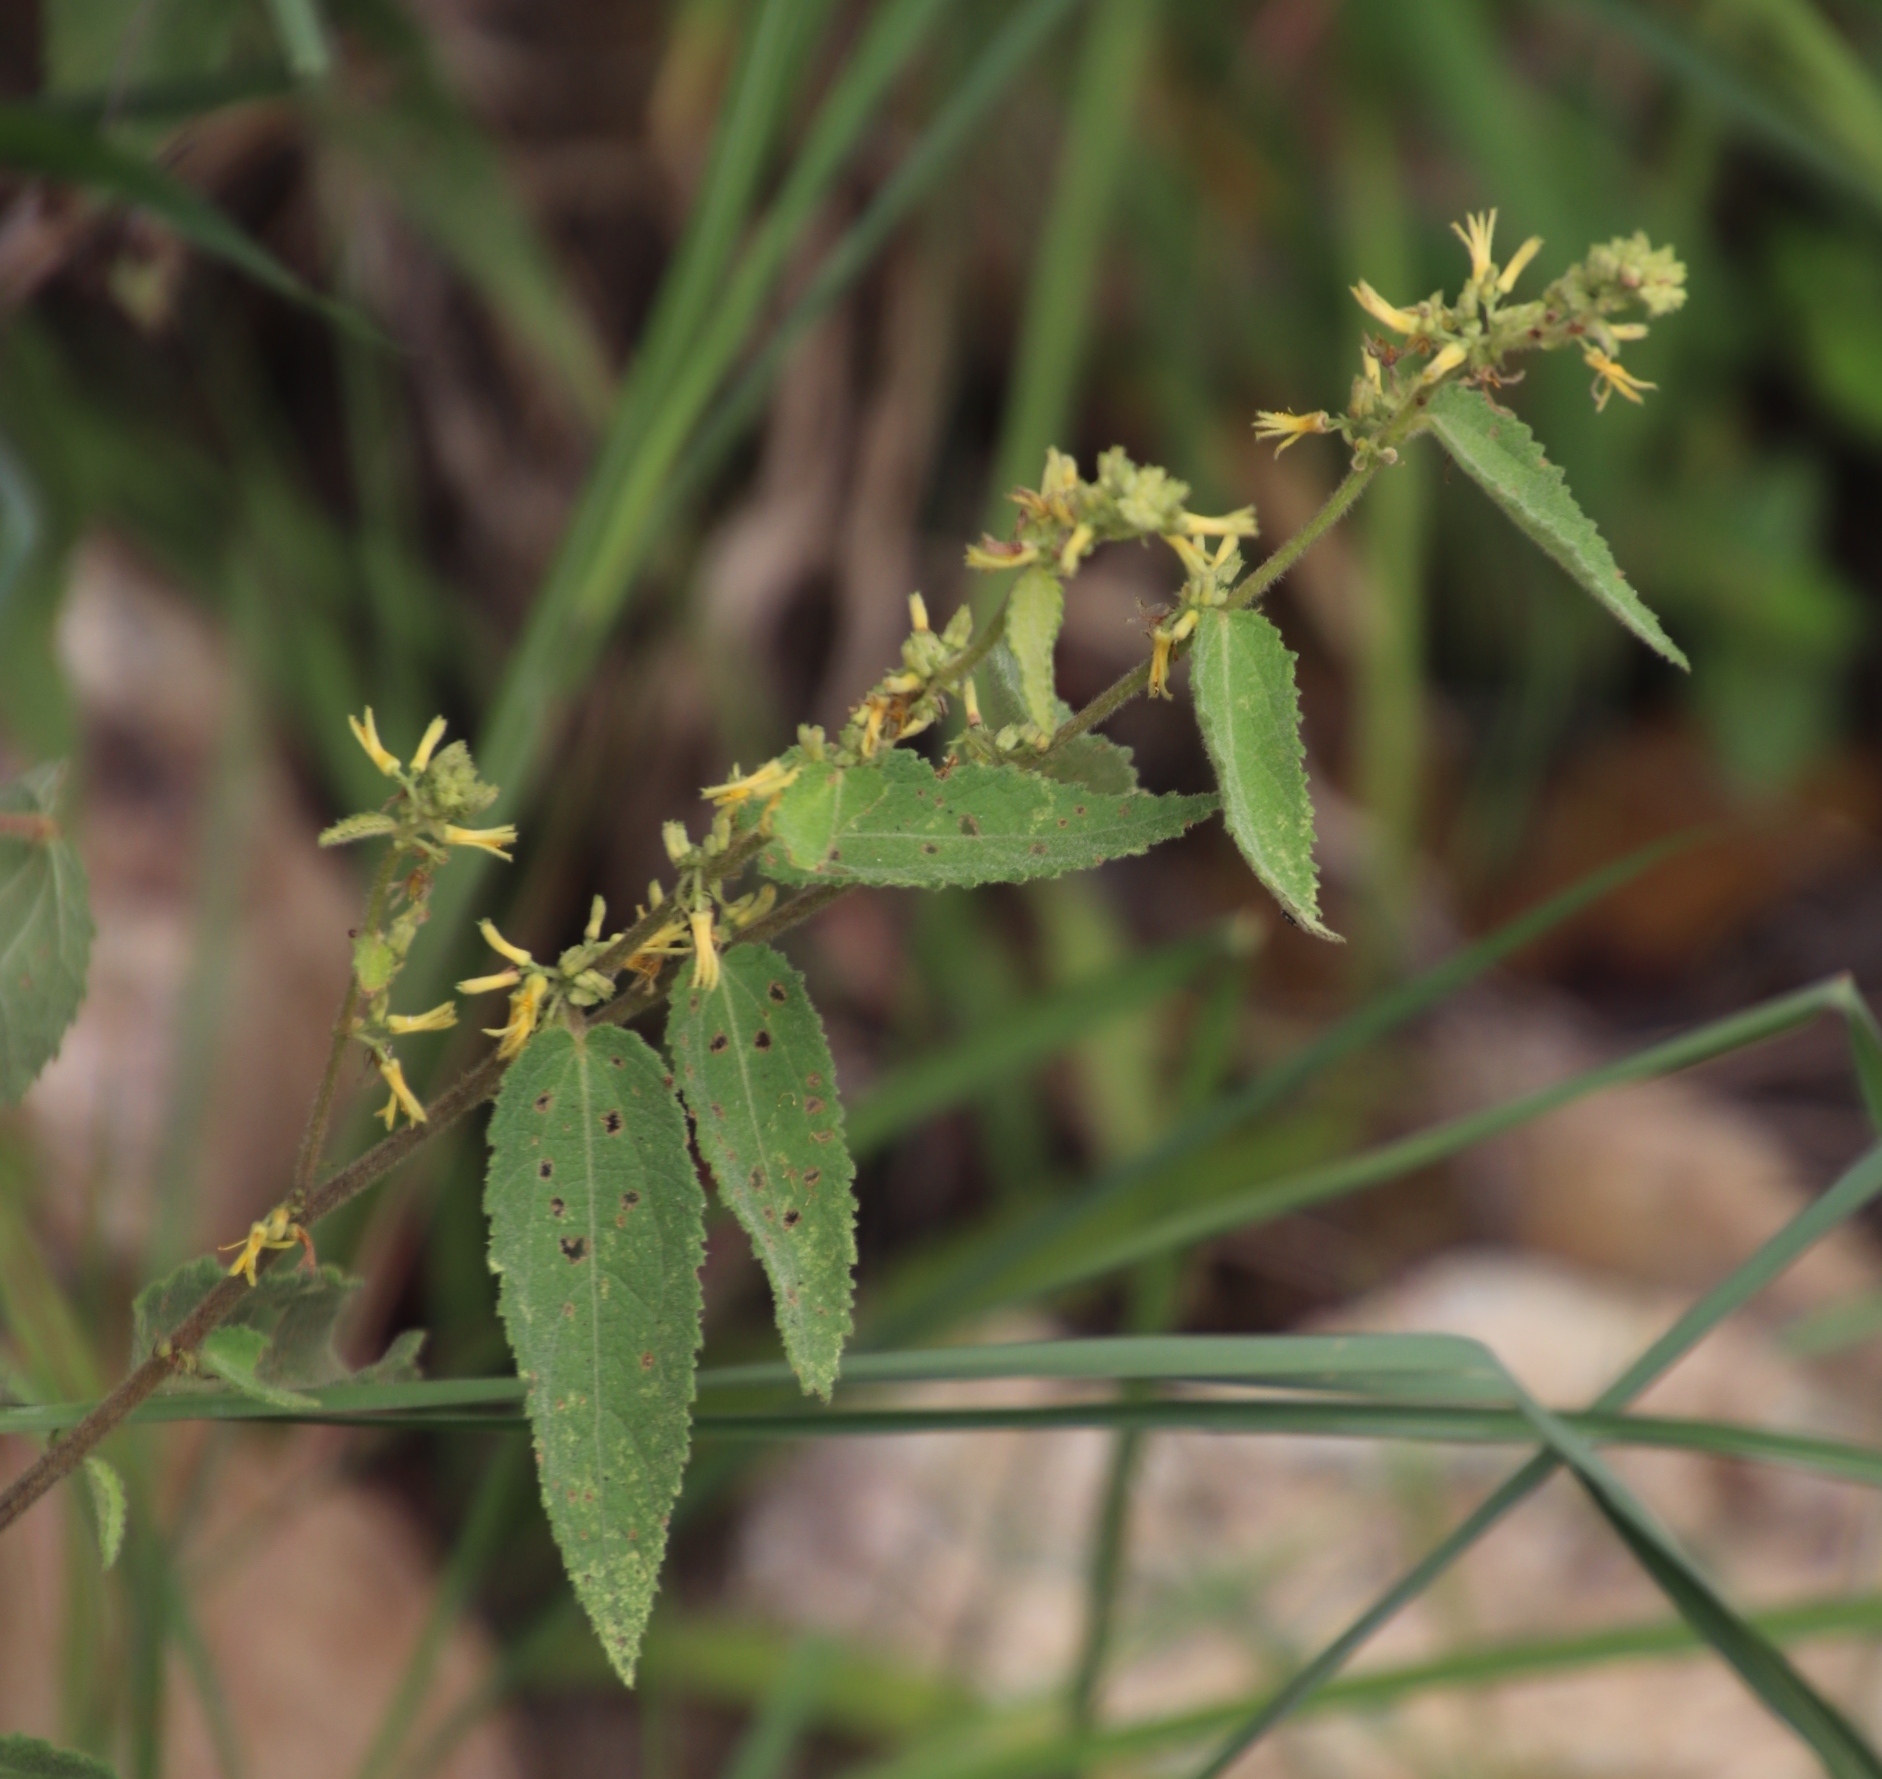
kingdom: Plantae
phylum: Tracheophyta
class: Magnoliopsida
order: Malvales
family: Malvaceae
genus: Triumfetta
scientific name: Triumfetta pilosa
